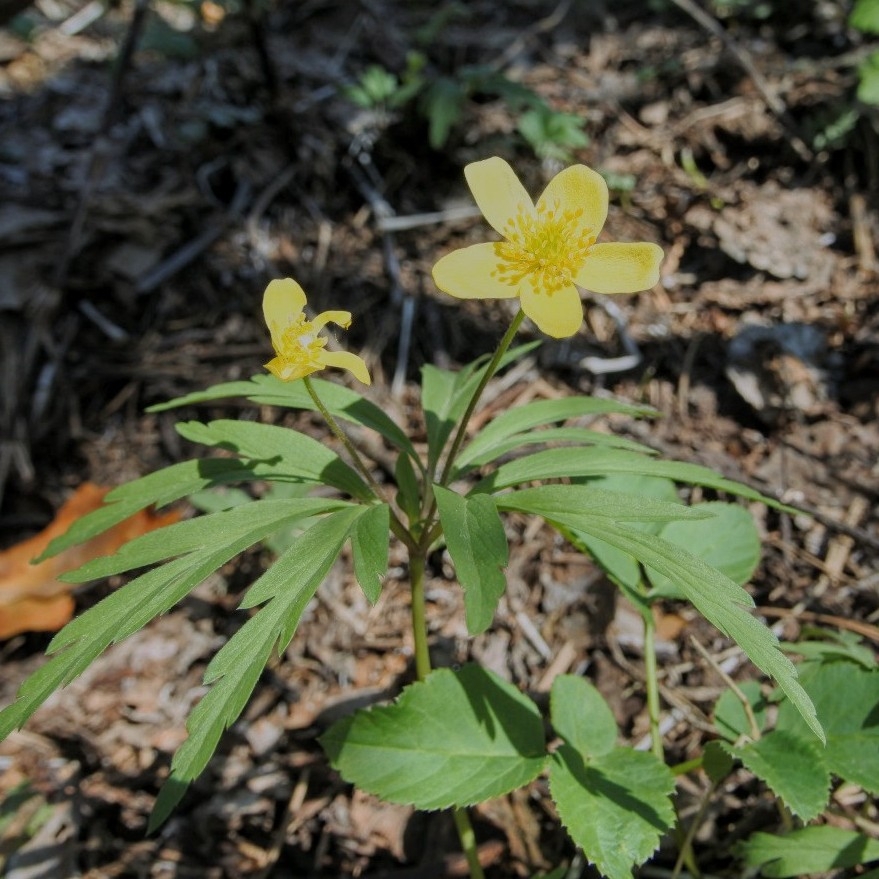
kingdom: Plantae
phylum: Tracheophyta
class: Magnoliopsida
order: Ranunculales
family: Ranunculaceae
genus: Anemone
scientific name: Anemone ranunculoides
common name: Yellow anemone
